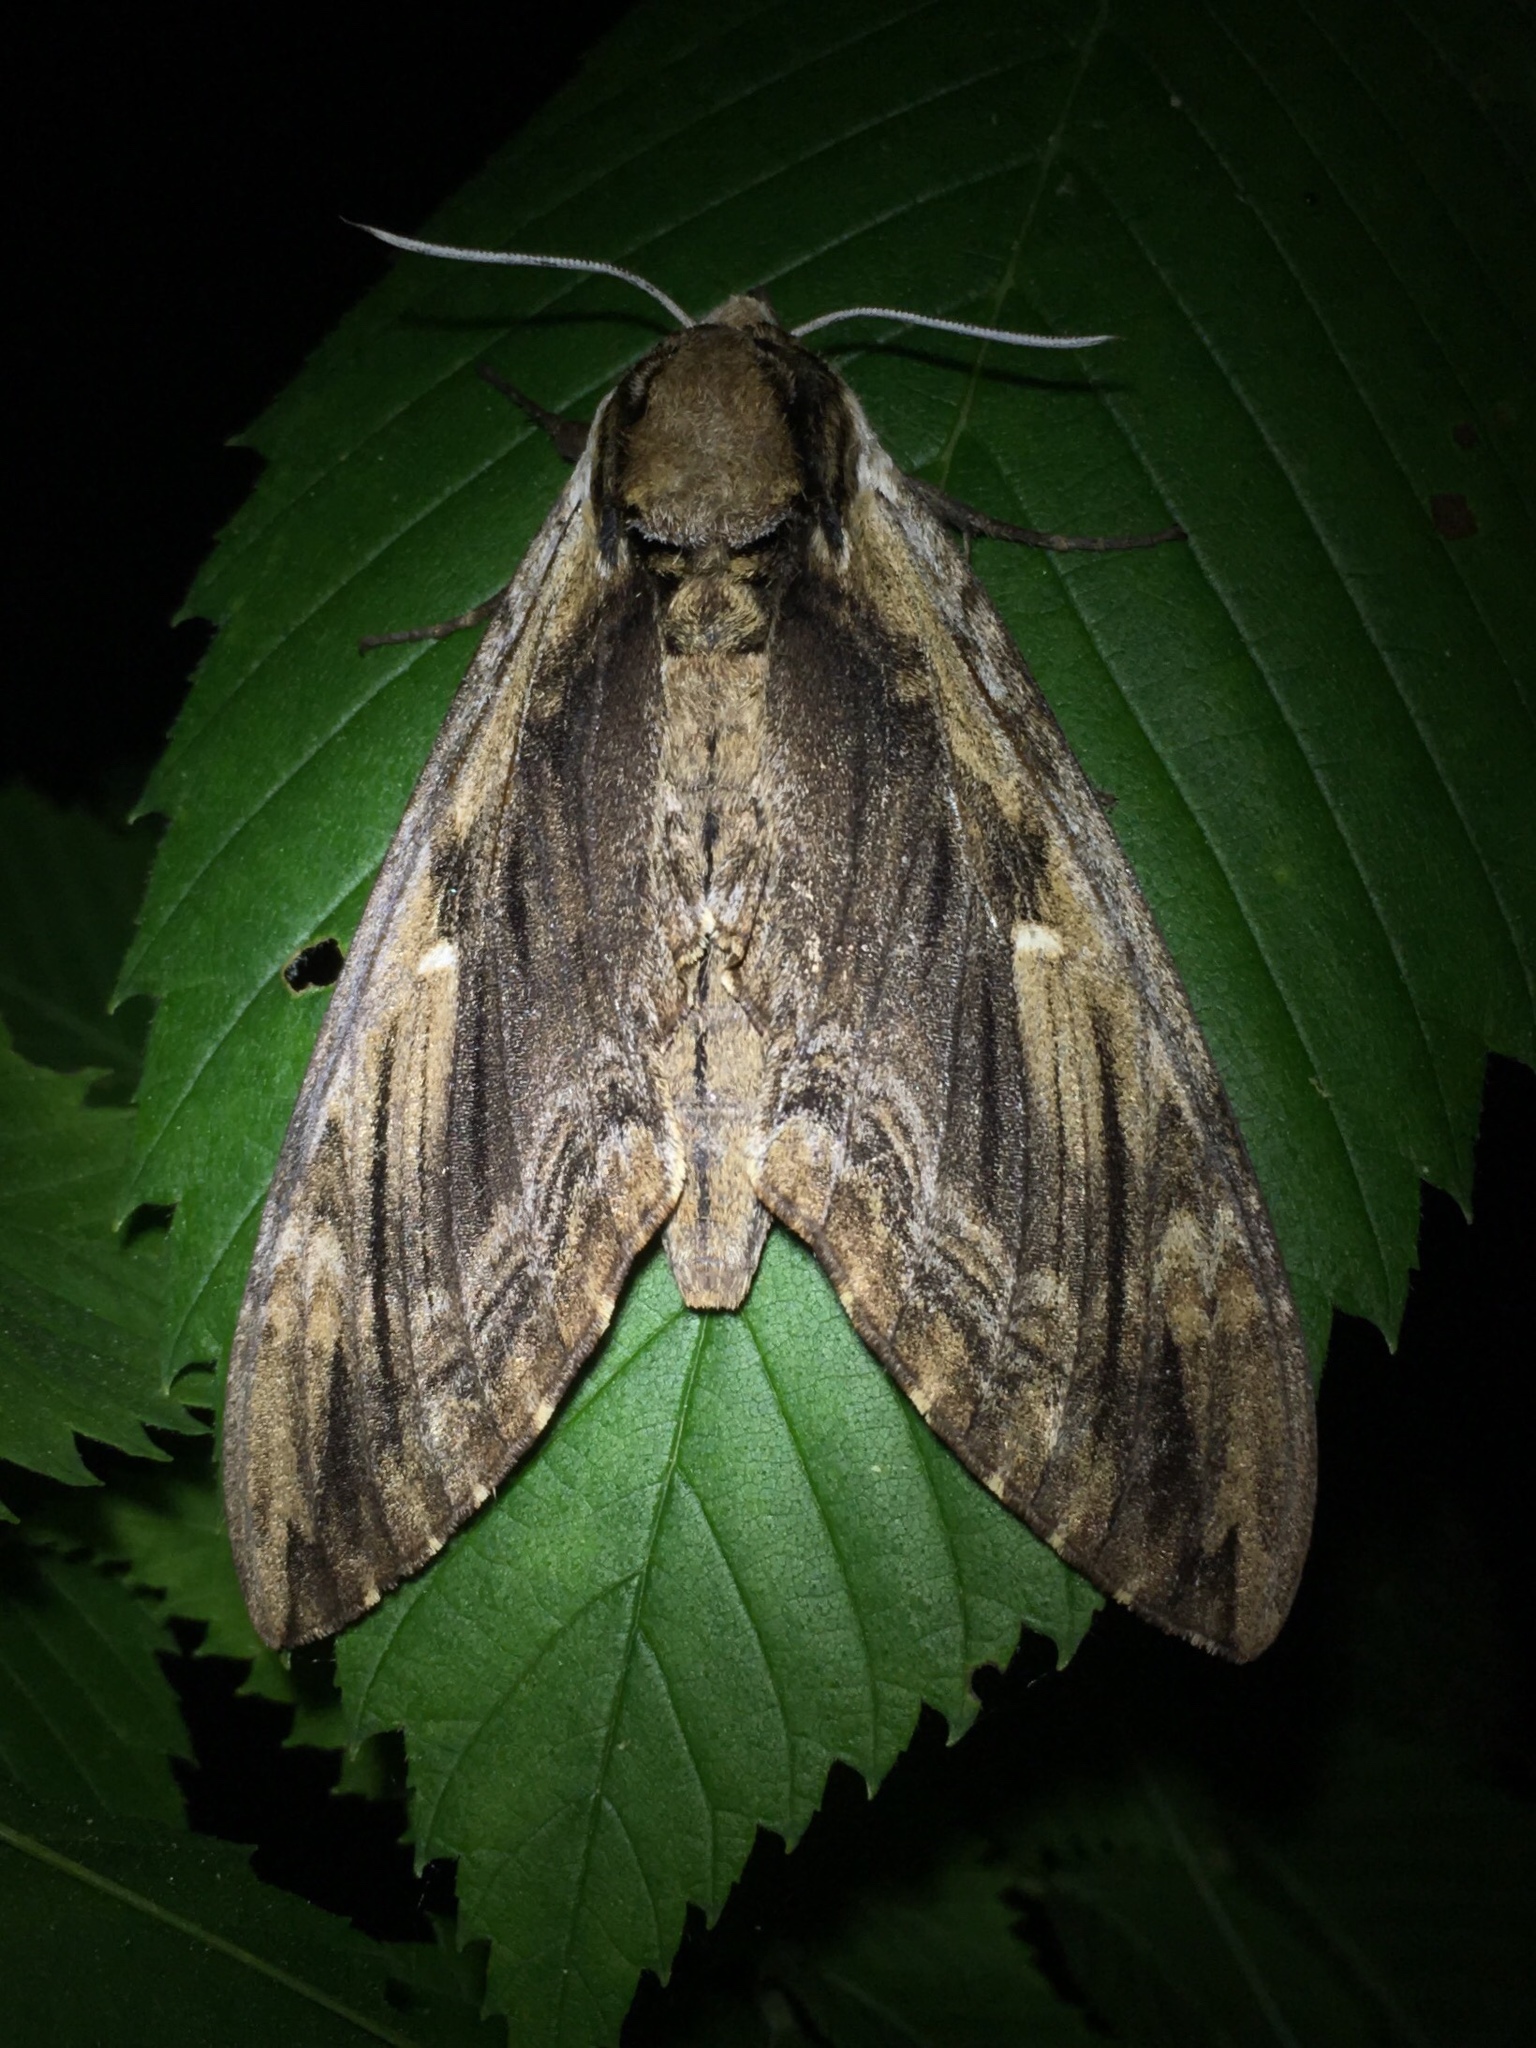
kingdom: Animalia
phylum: Arthropoda
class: Insecta
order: Lepidoptera
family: Sphingidae
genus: Ceratomia
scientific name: Ceratomia amyntor
